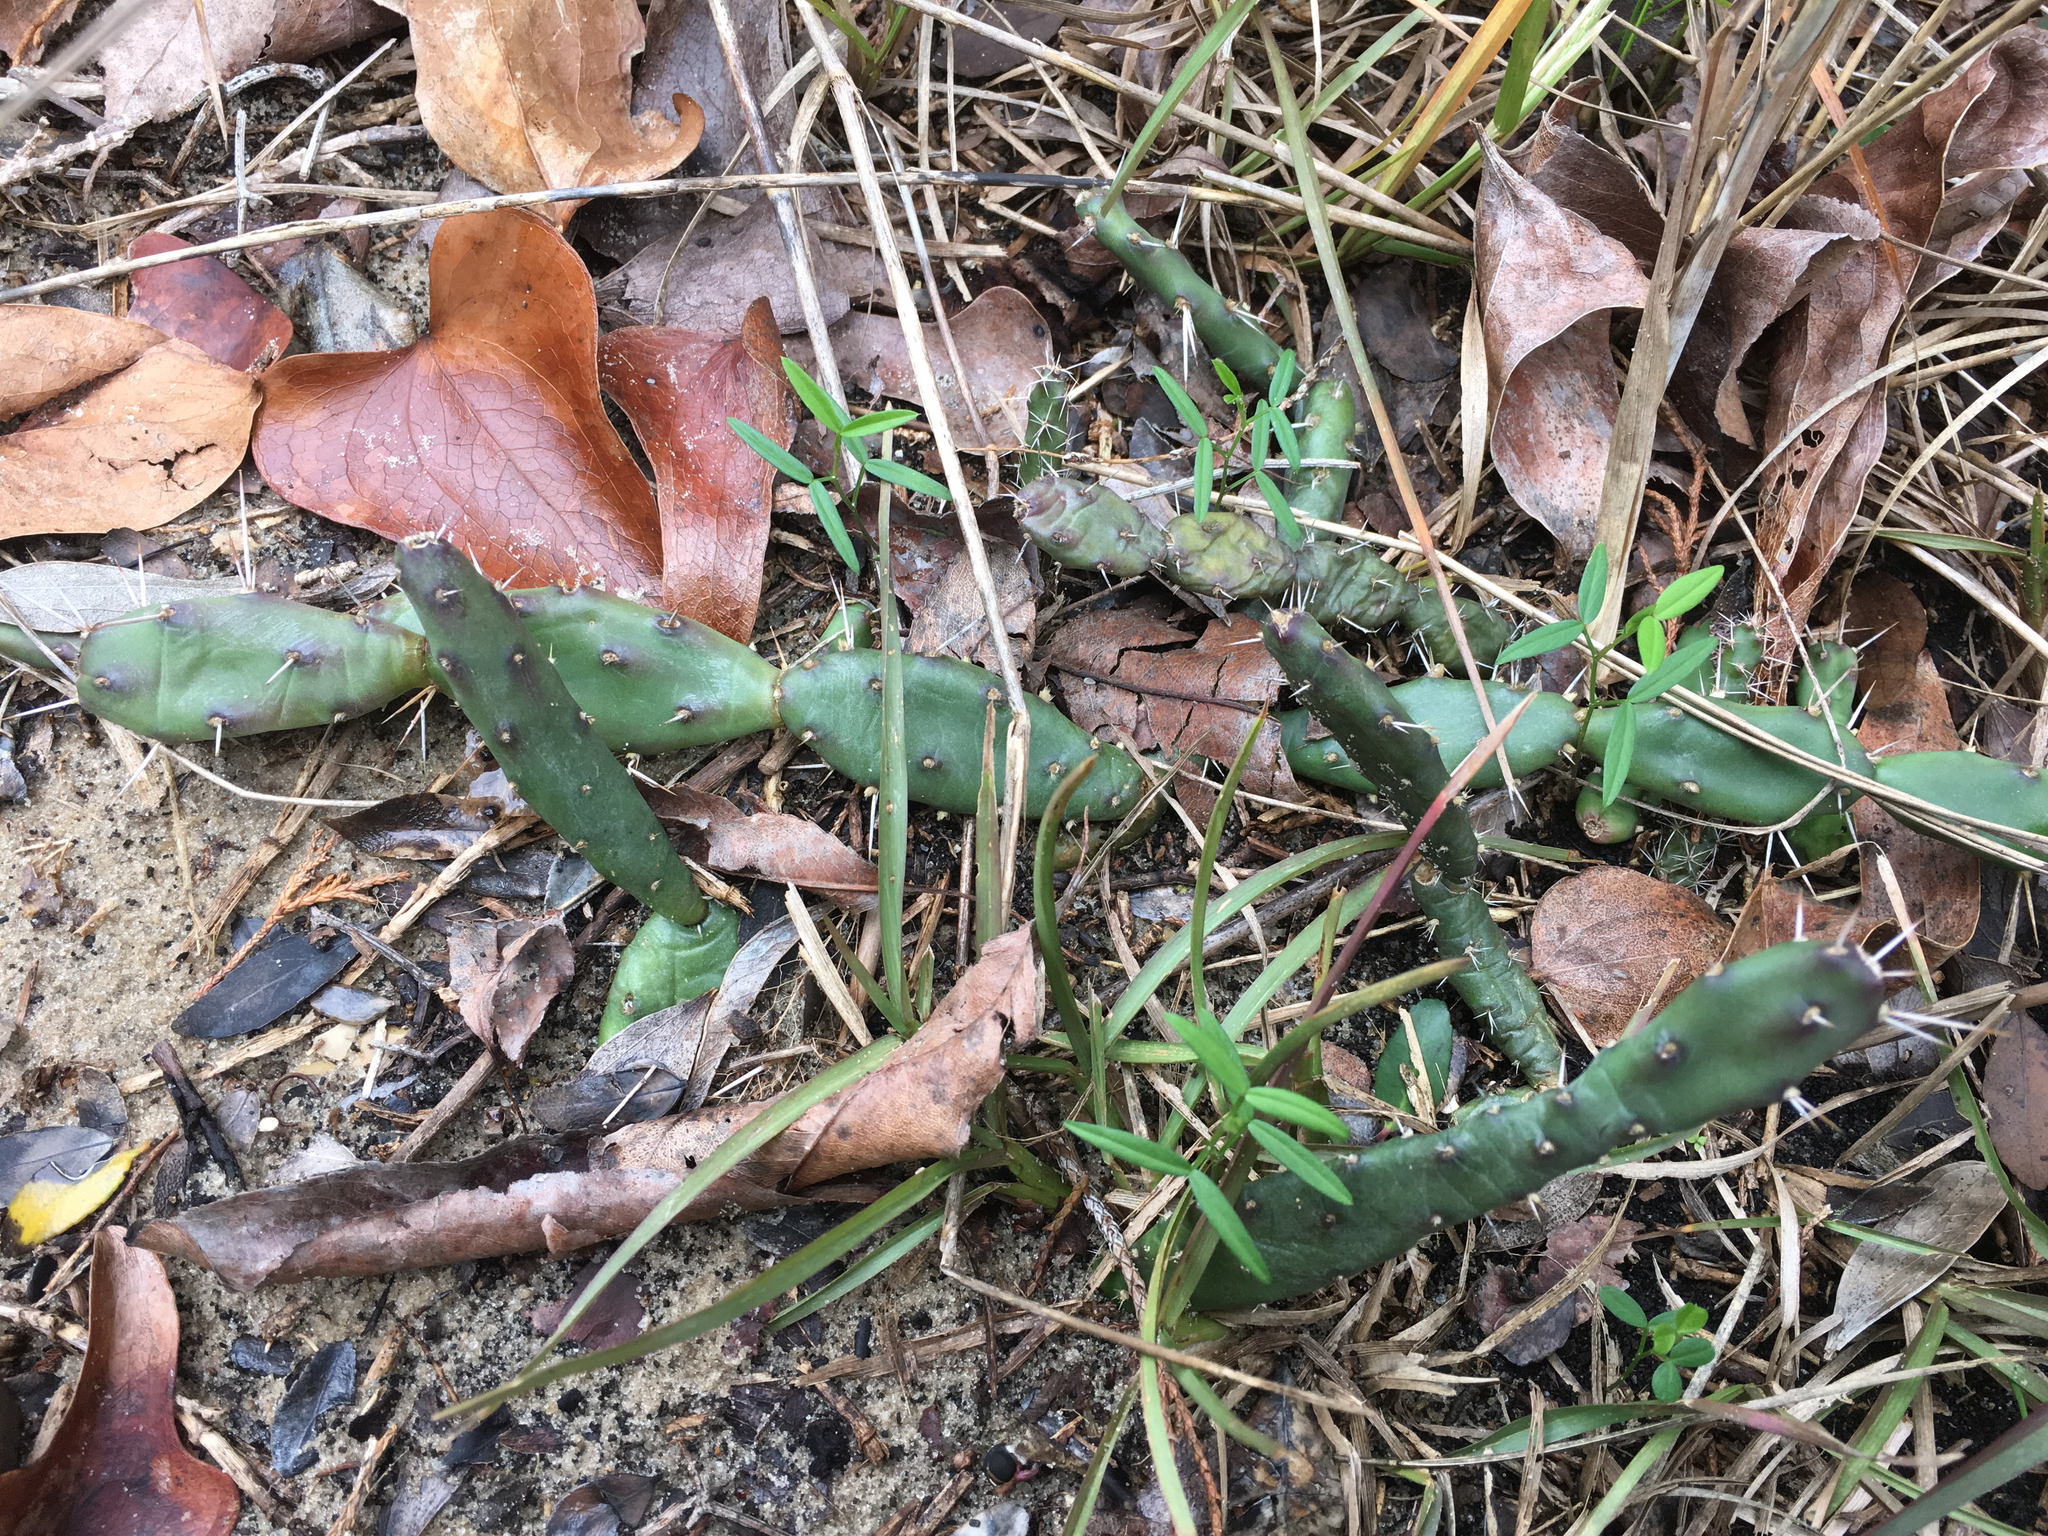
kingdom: Plantae
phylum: Tracheophyta
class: Magnoliopsida
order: Caryophyllales
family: Cactaceae
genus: Opuntia
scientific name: Opuntia drummondii
